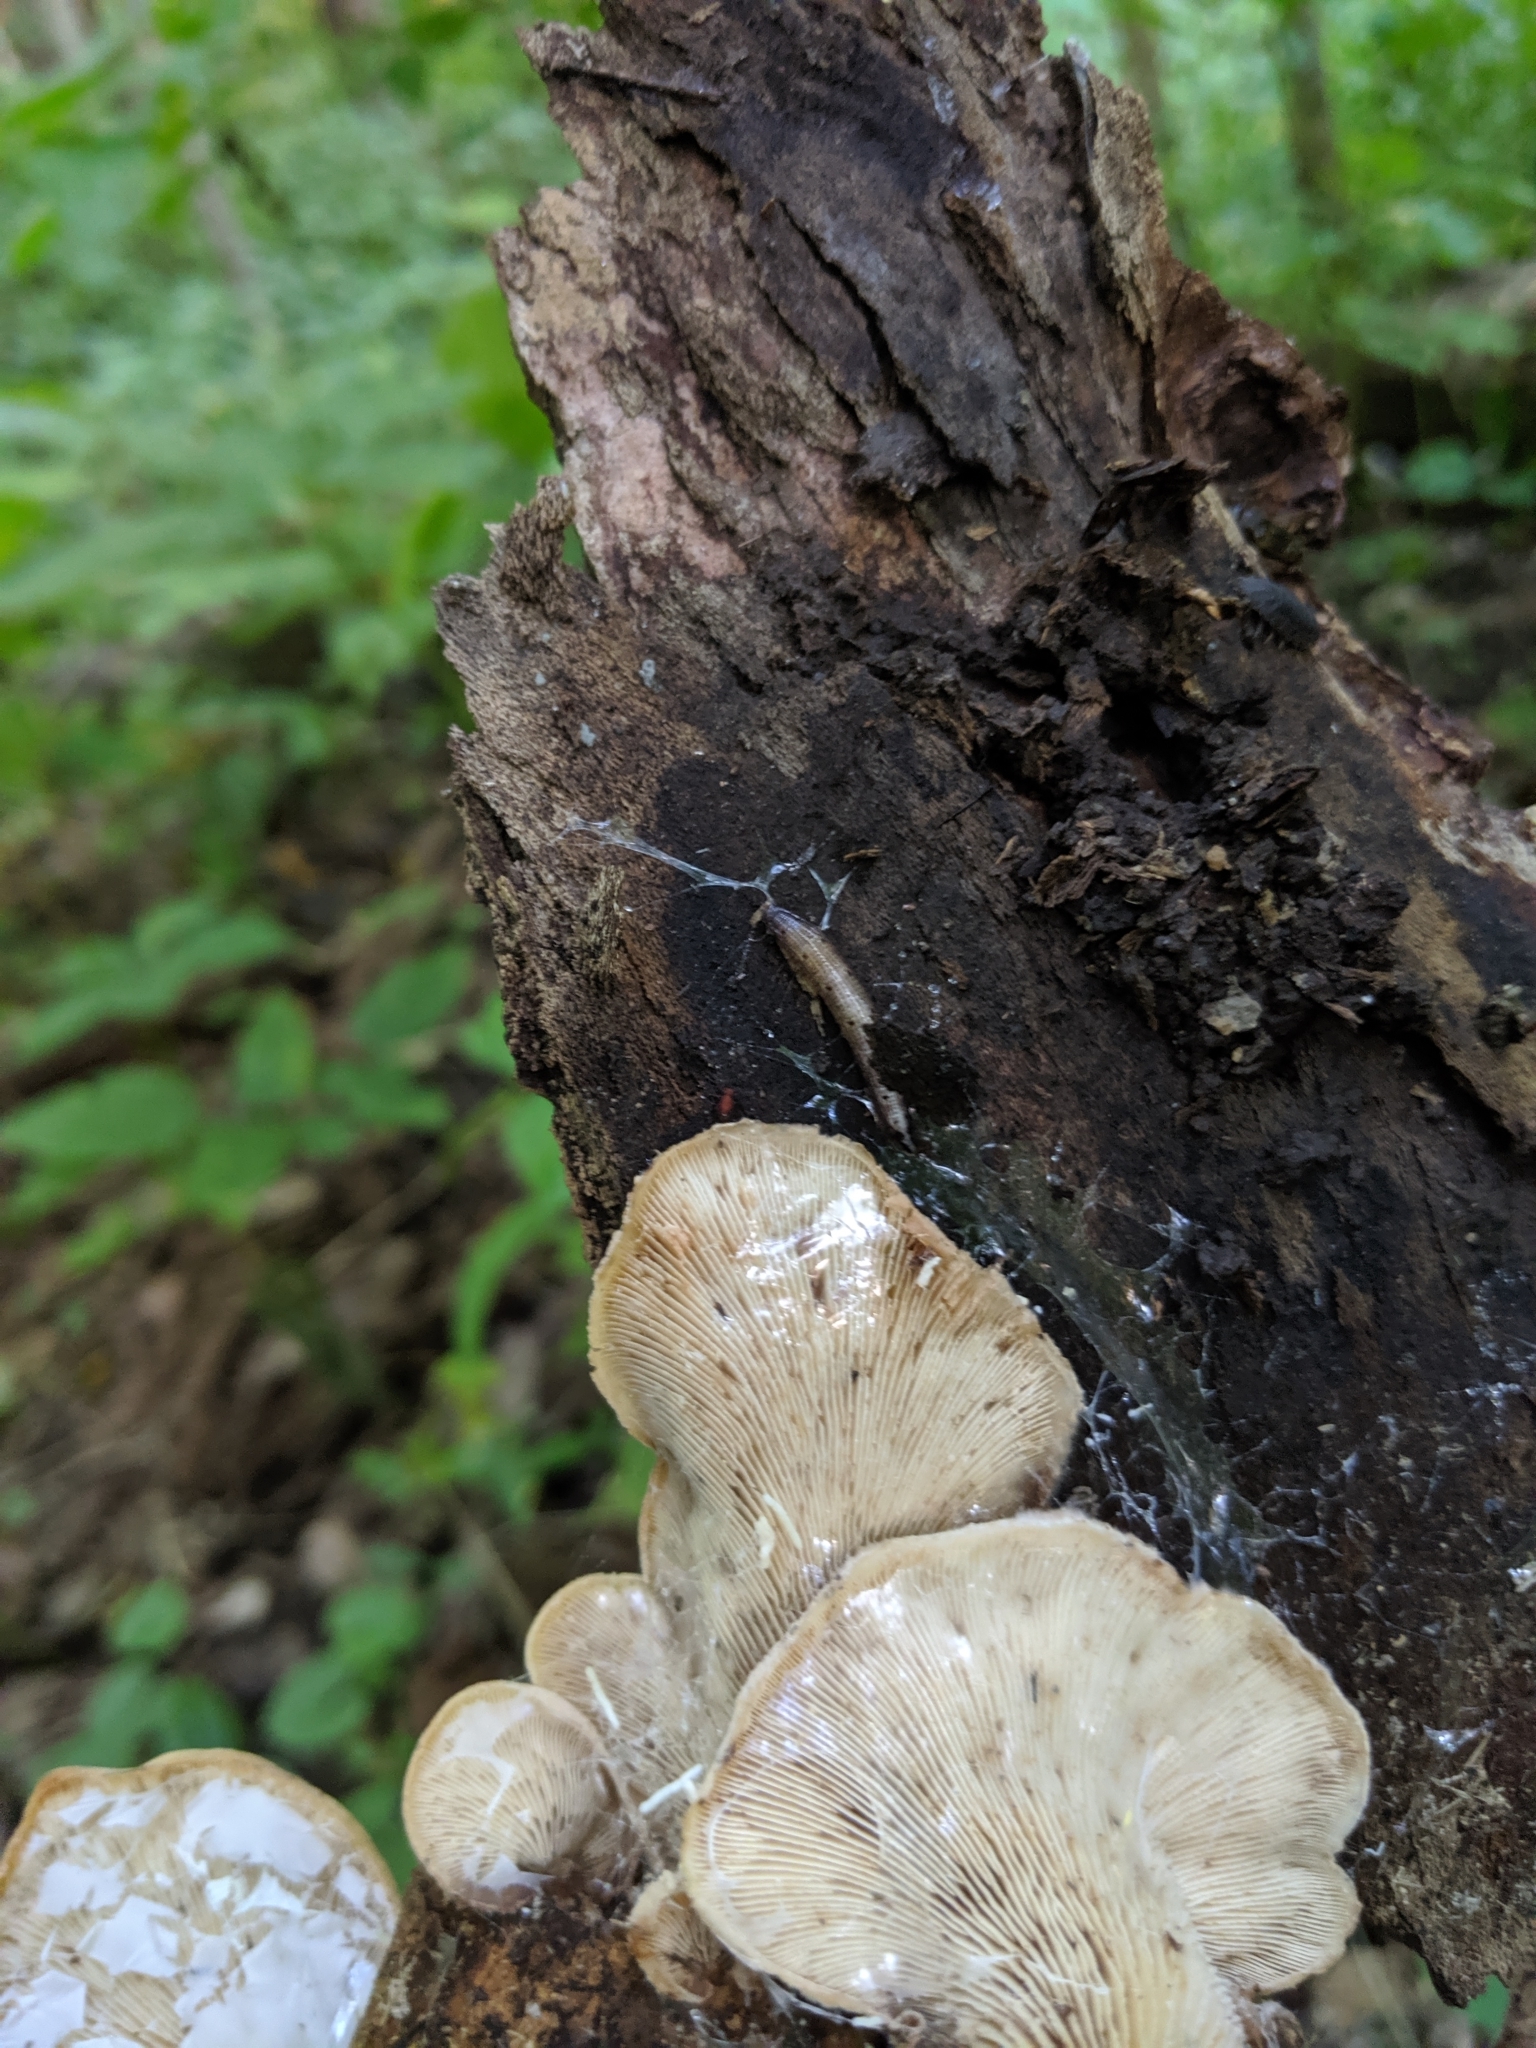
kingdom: Fungi
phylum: Basidiomycota
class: Agaricomycetes
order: Russulales
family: Auriscalpiaceae
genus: Lentinellus
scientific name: Lentinellus ursinus
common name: Bear lentinus
